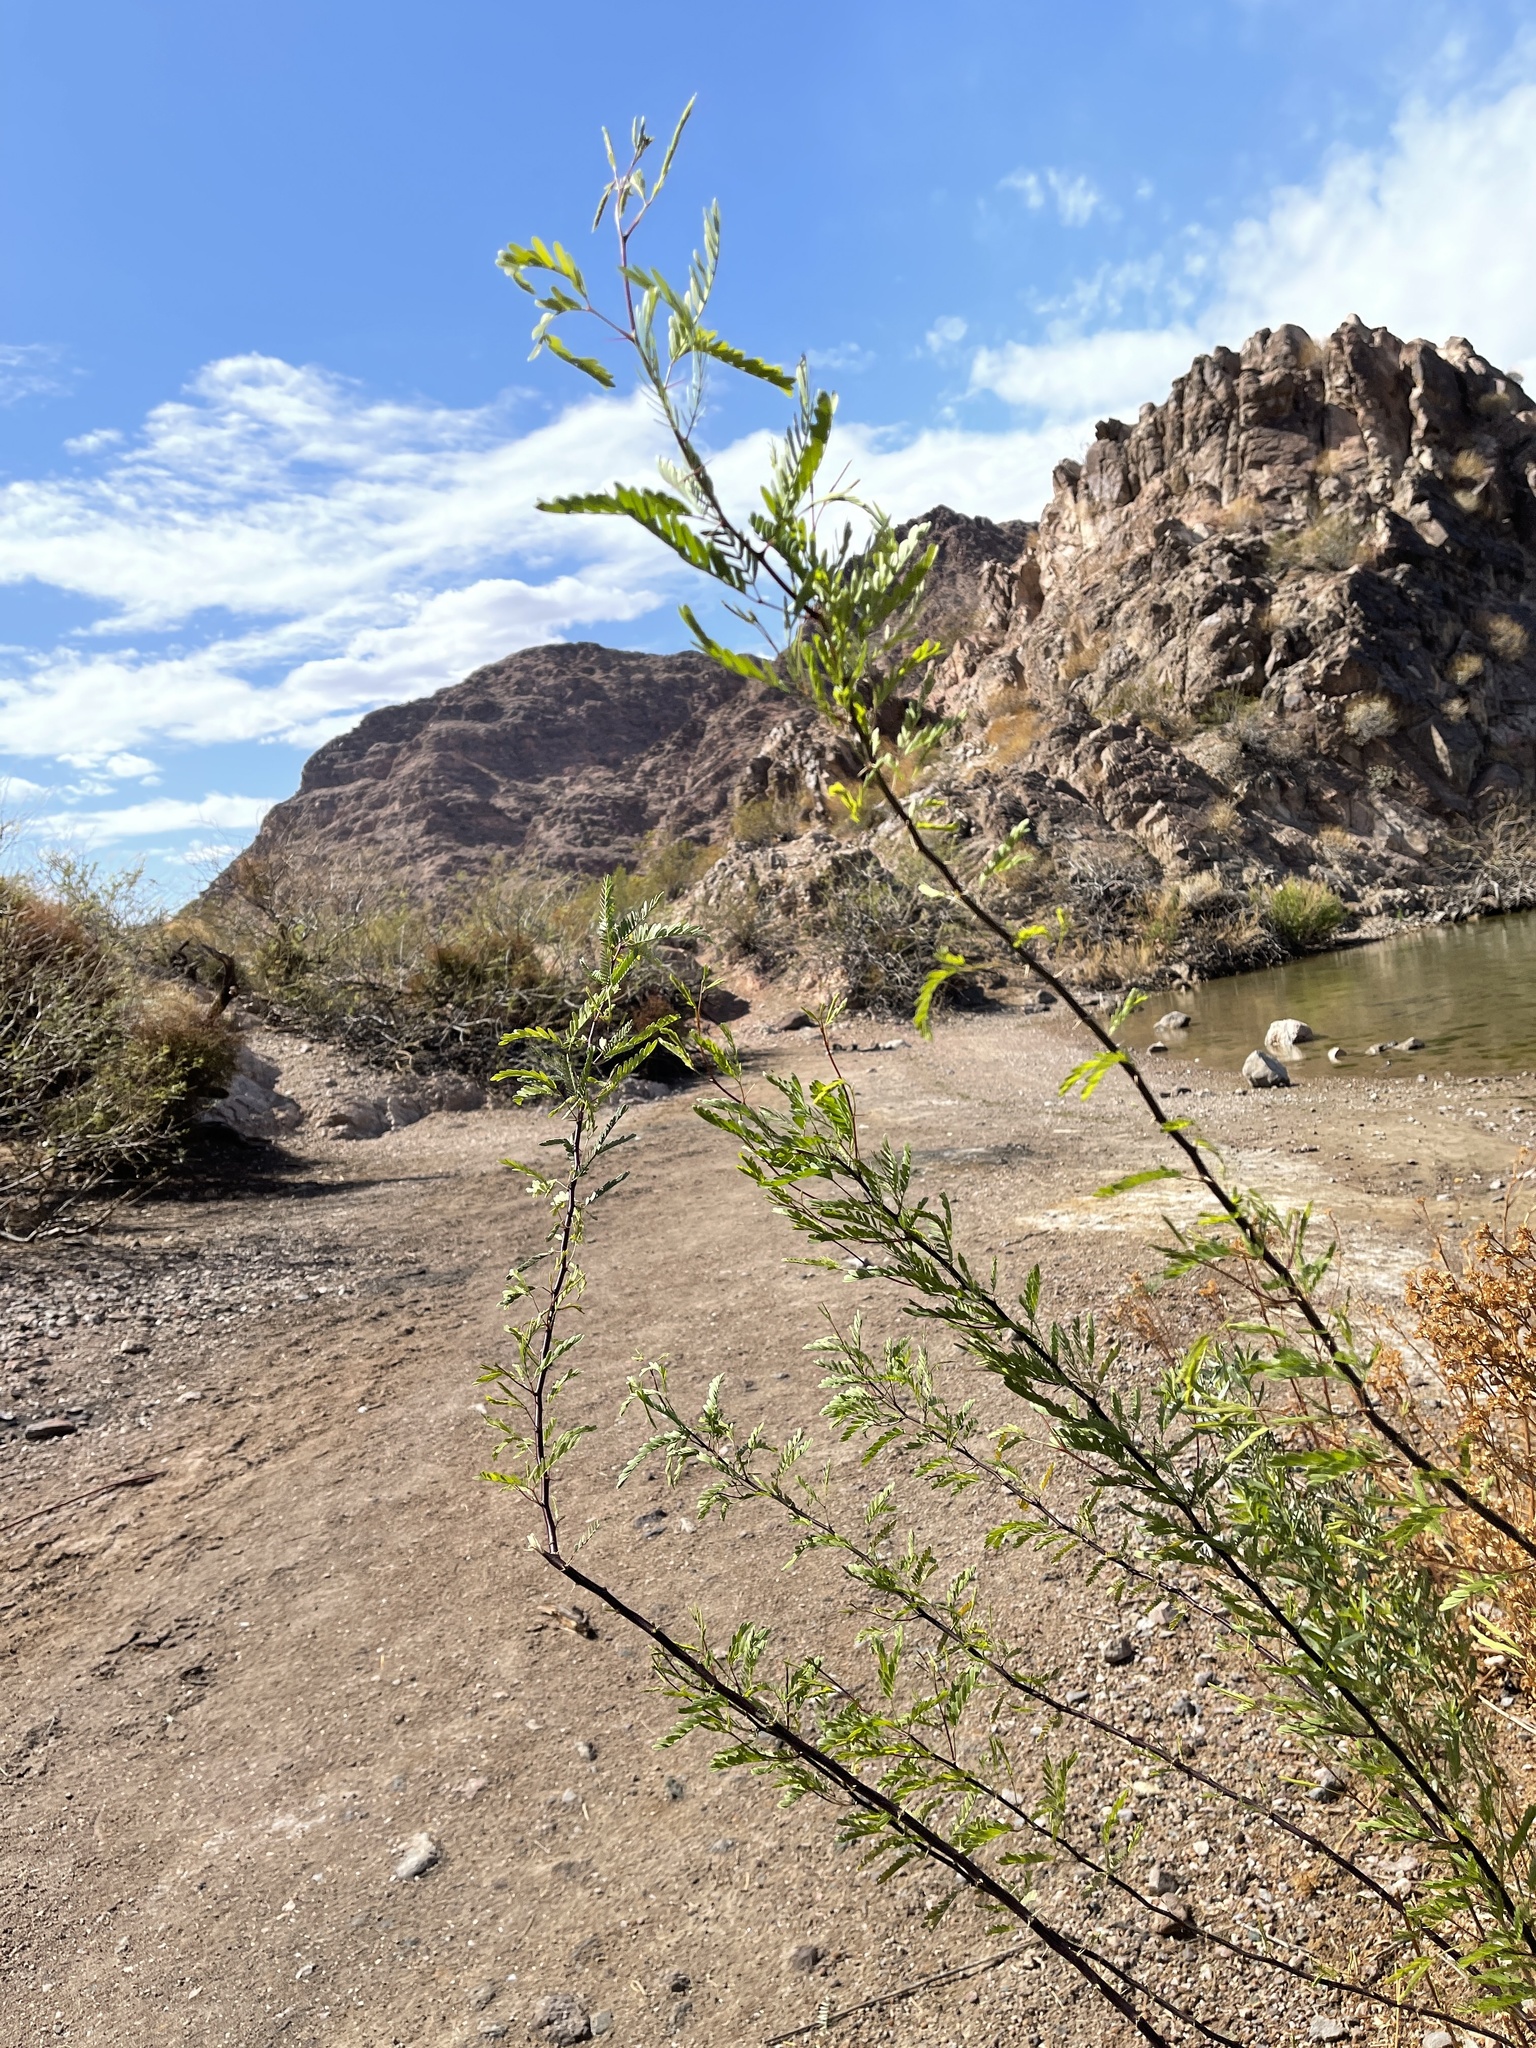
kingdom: Plantae
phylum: Tracheophyta
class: Magnoliopsida
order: Fabales
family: Fabaceae
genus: Prosopis
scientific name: Prosopis glandulosa
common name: Honey mesquite
